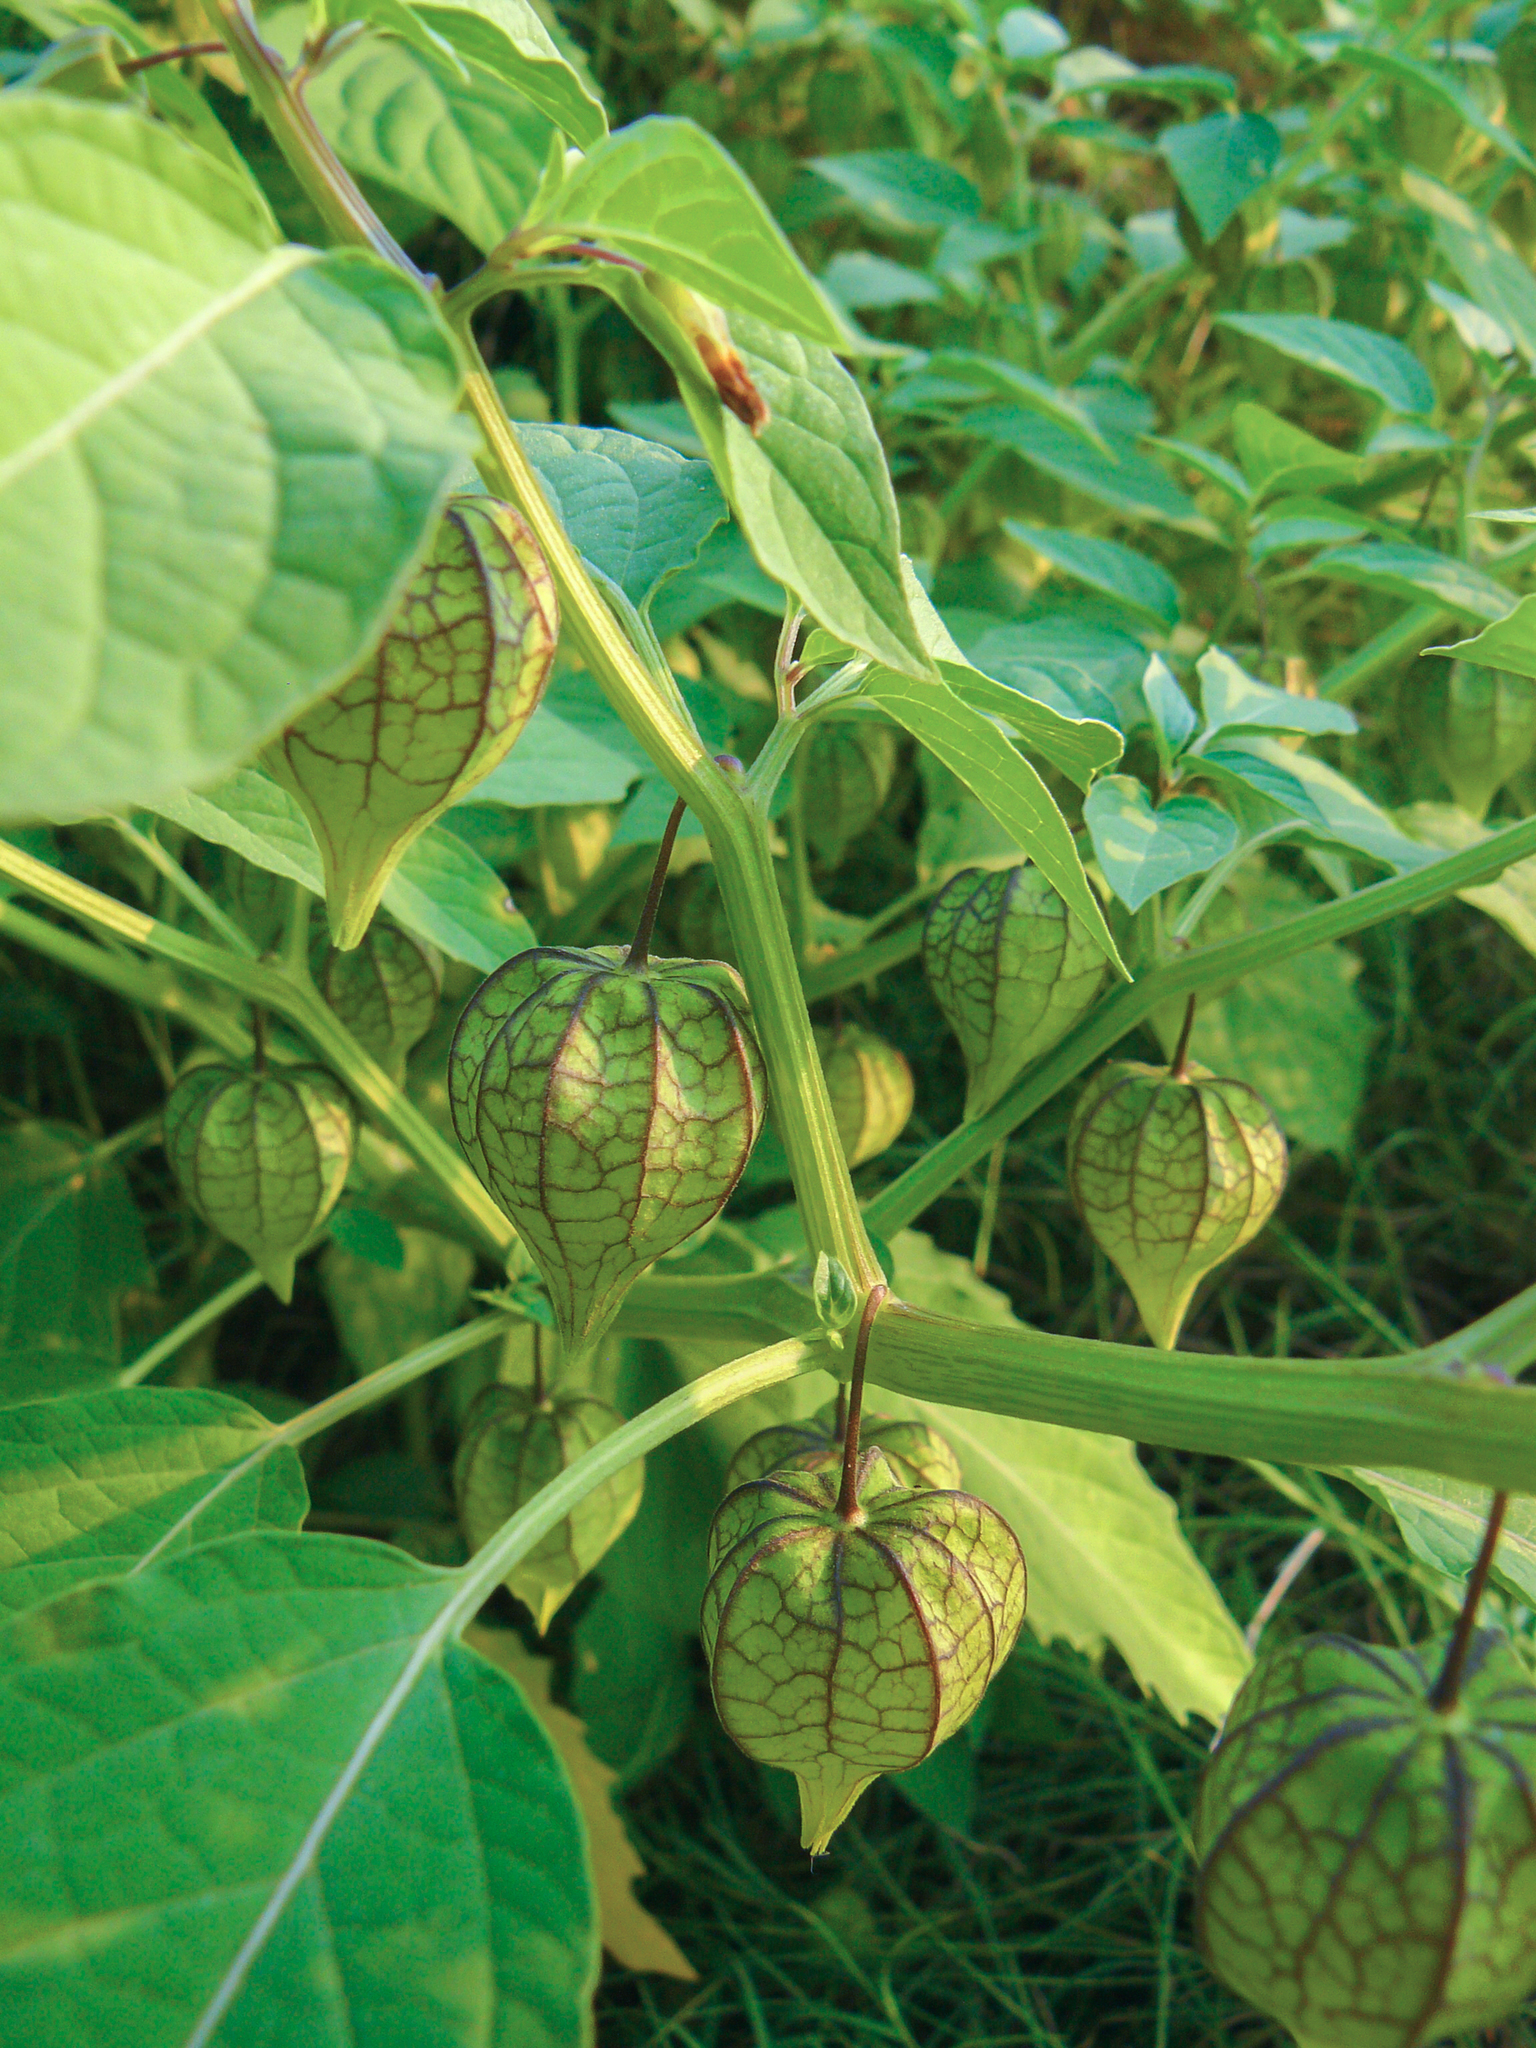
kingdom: Plantae
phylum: Tracheophyta
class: Magnoliopsida
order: Solanales
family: Solanaceae
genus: Physalis
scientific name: Physalis angulata
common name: Angular winter-cherry
